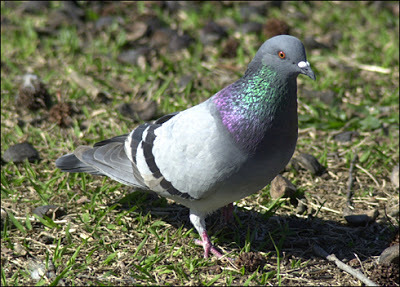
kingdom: Animalia
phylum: Chordata
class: Aves
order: Columbiformes
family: Columbidae
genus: Columba
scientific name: Columba livia
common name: Rock pigeon
